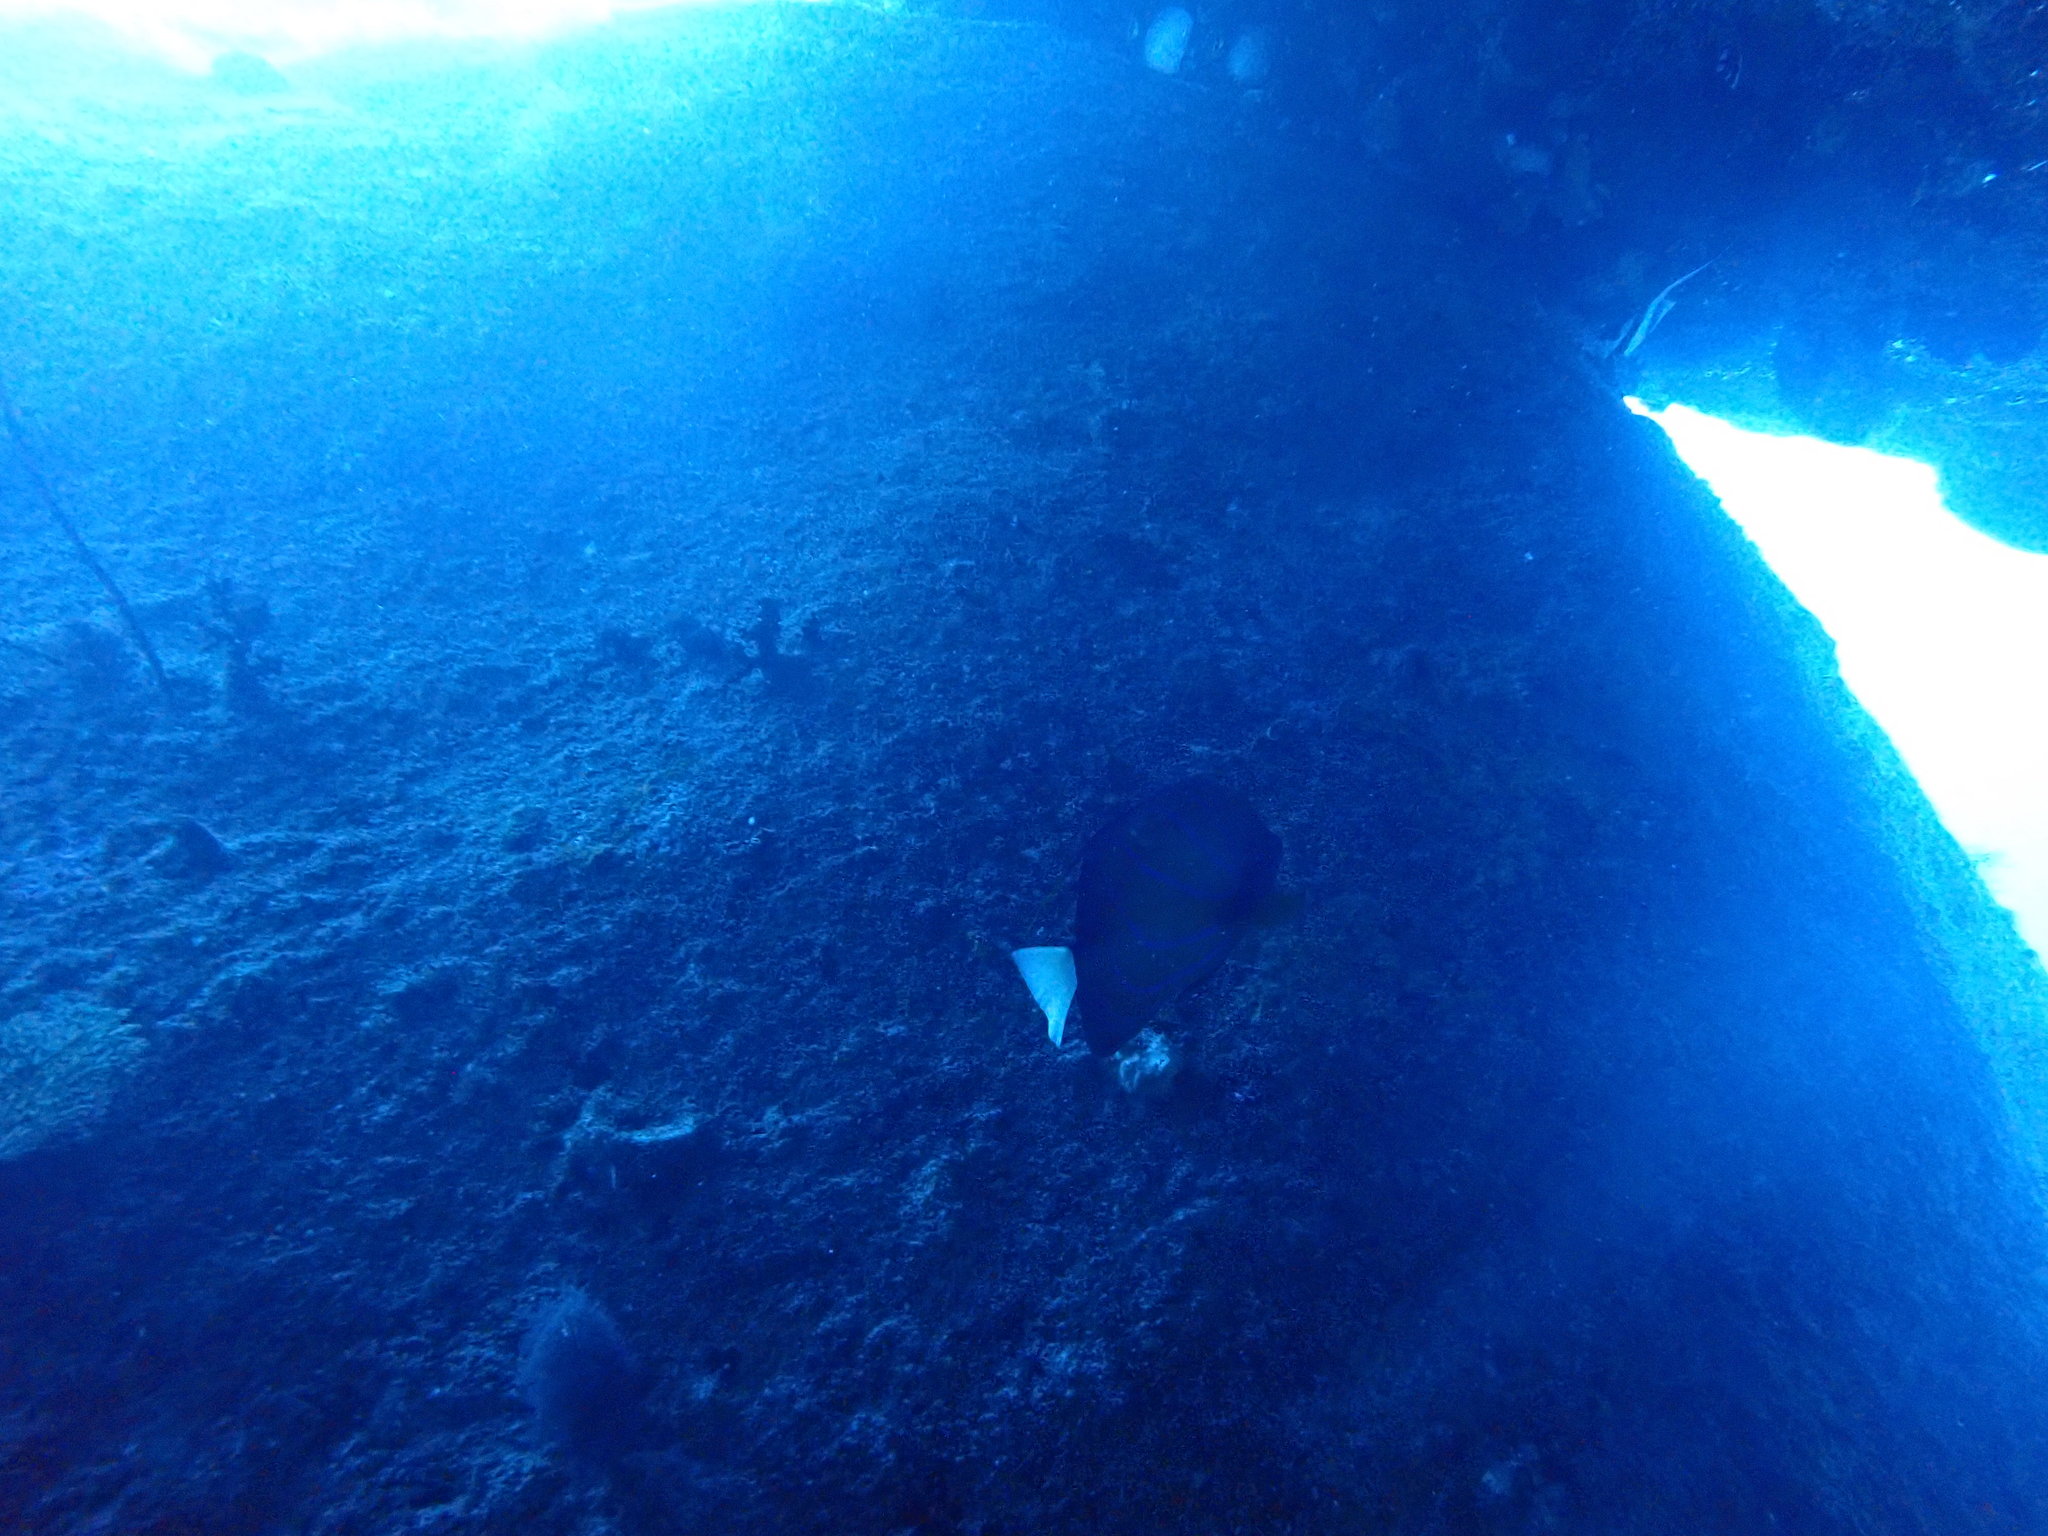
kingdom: Animalia
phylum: Chordata
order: Perciformes
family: Pomacanthidae
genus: Pomacanthus
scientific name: Pomacanthus annularis
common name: Bluering angelfish
